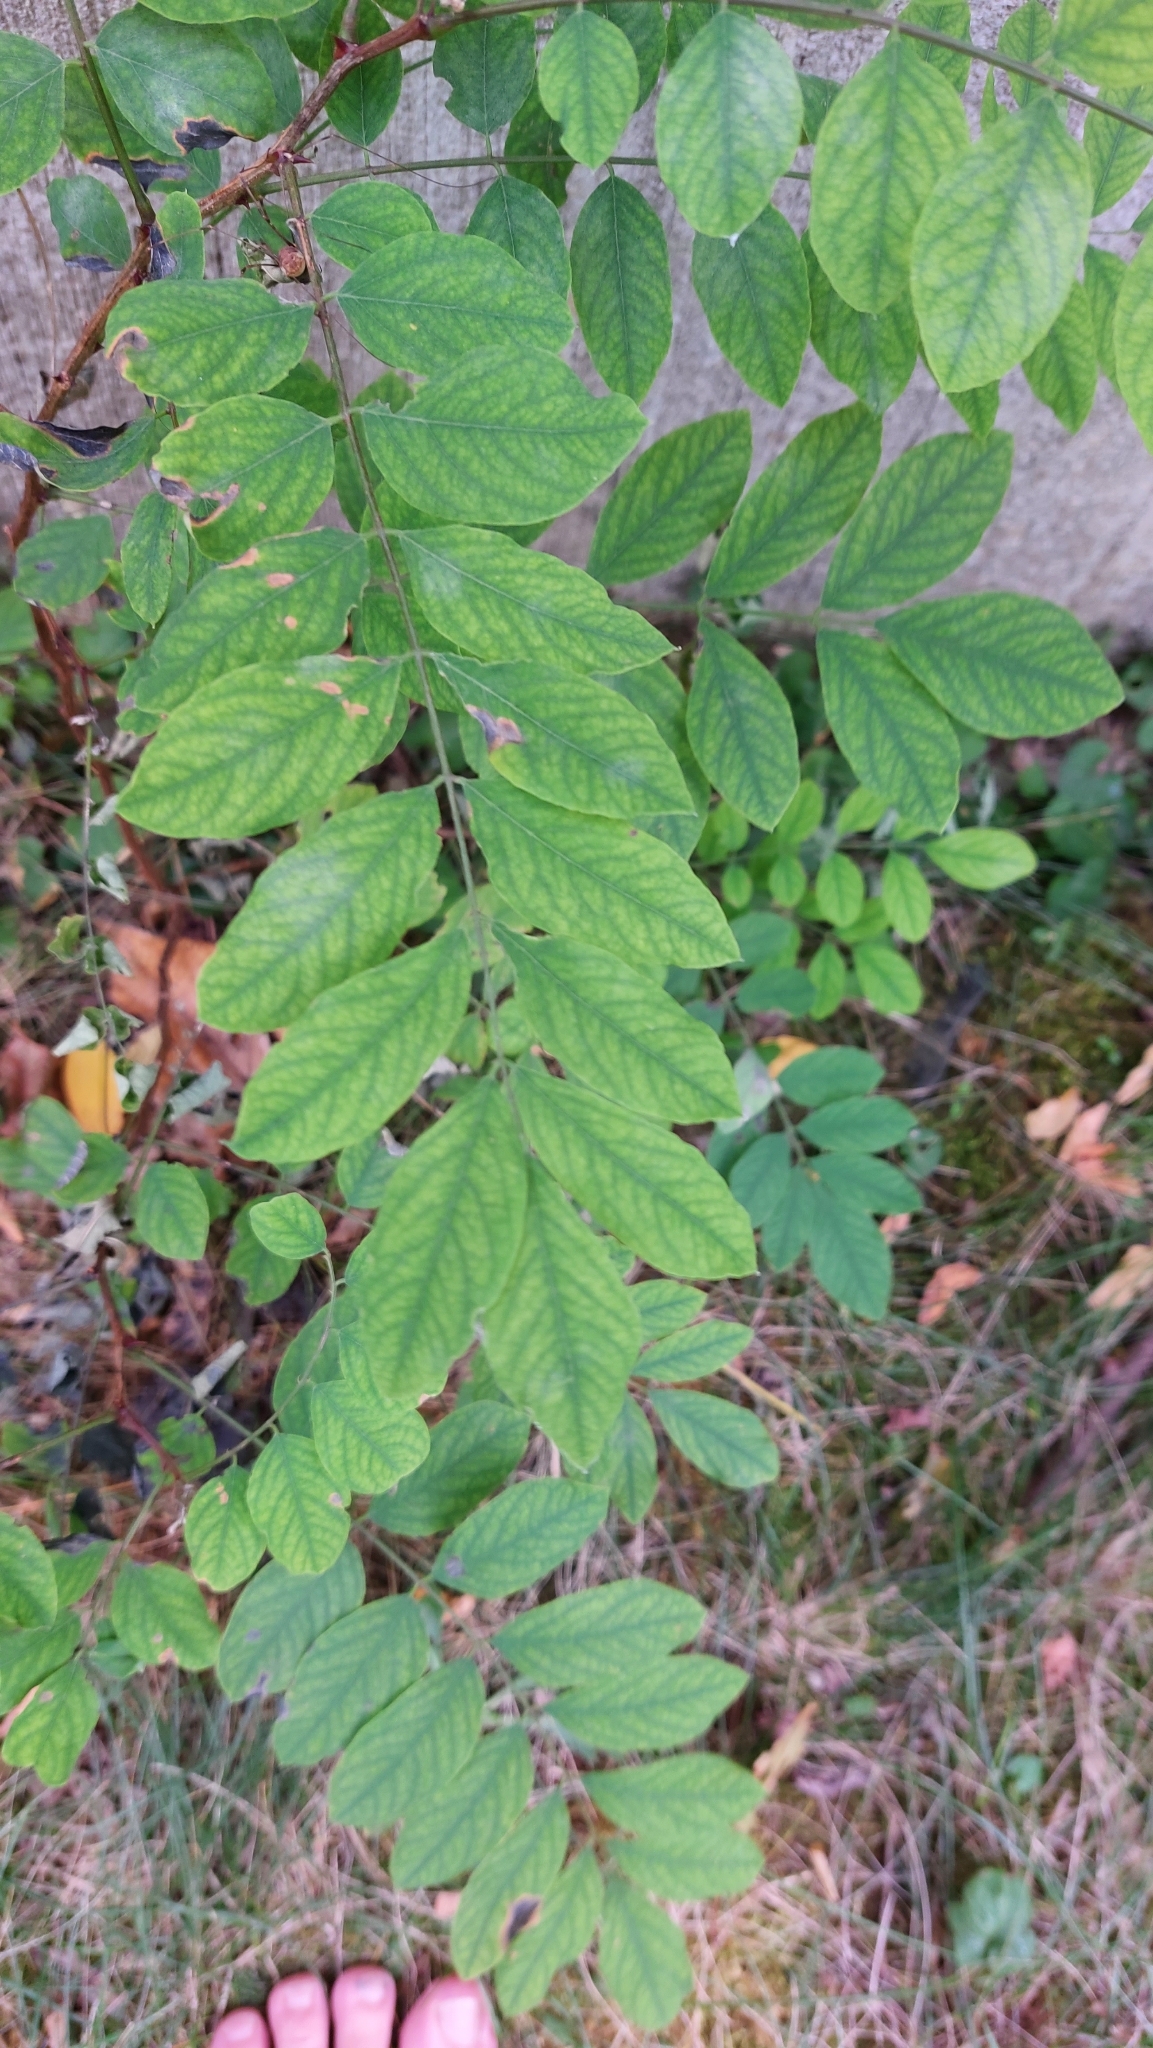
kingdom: Plantae
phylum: Tracheophyta
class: Magnoliopsida
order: Fabales
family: Fabaceae
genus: Robinia
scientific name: Robinia pseudoacacia
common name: Black locust
